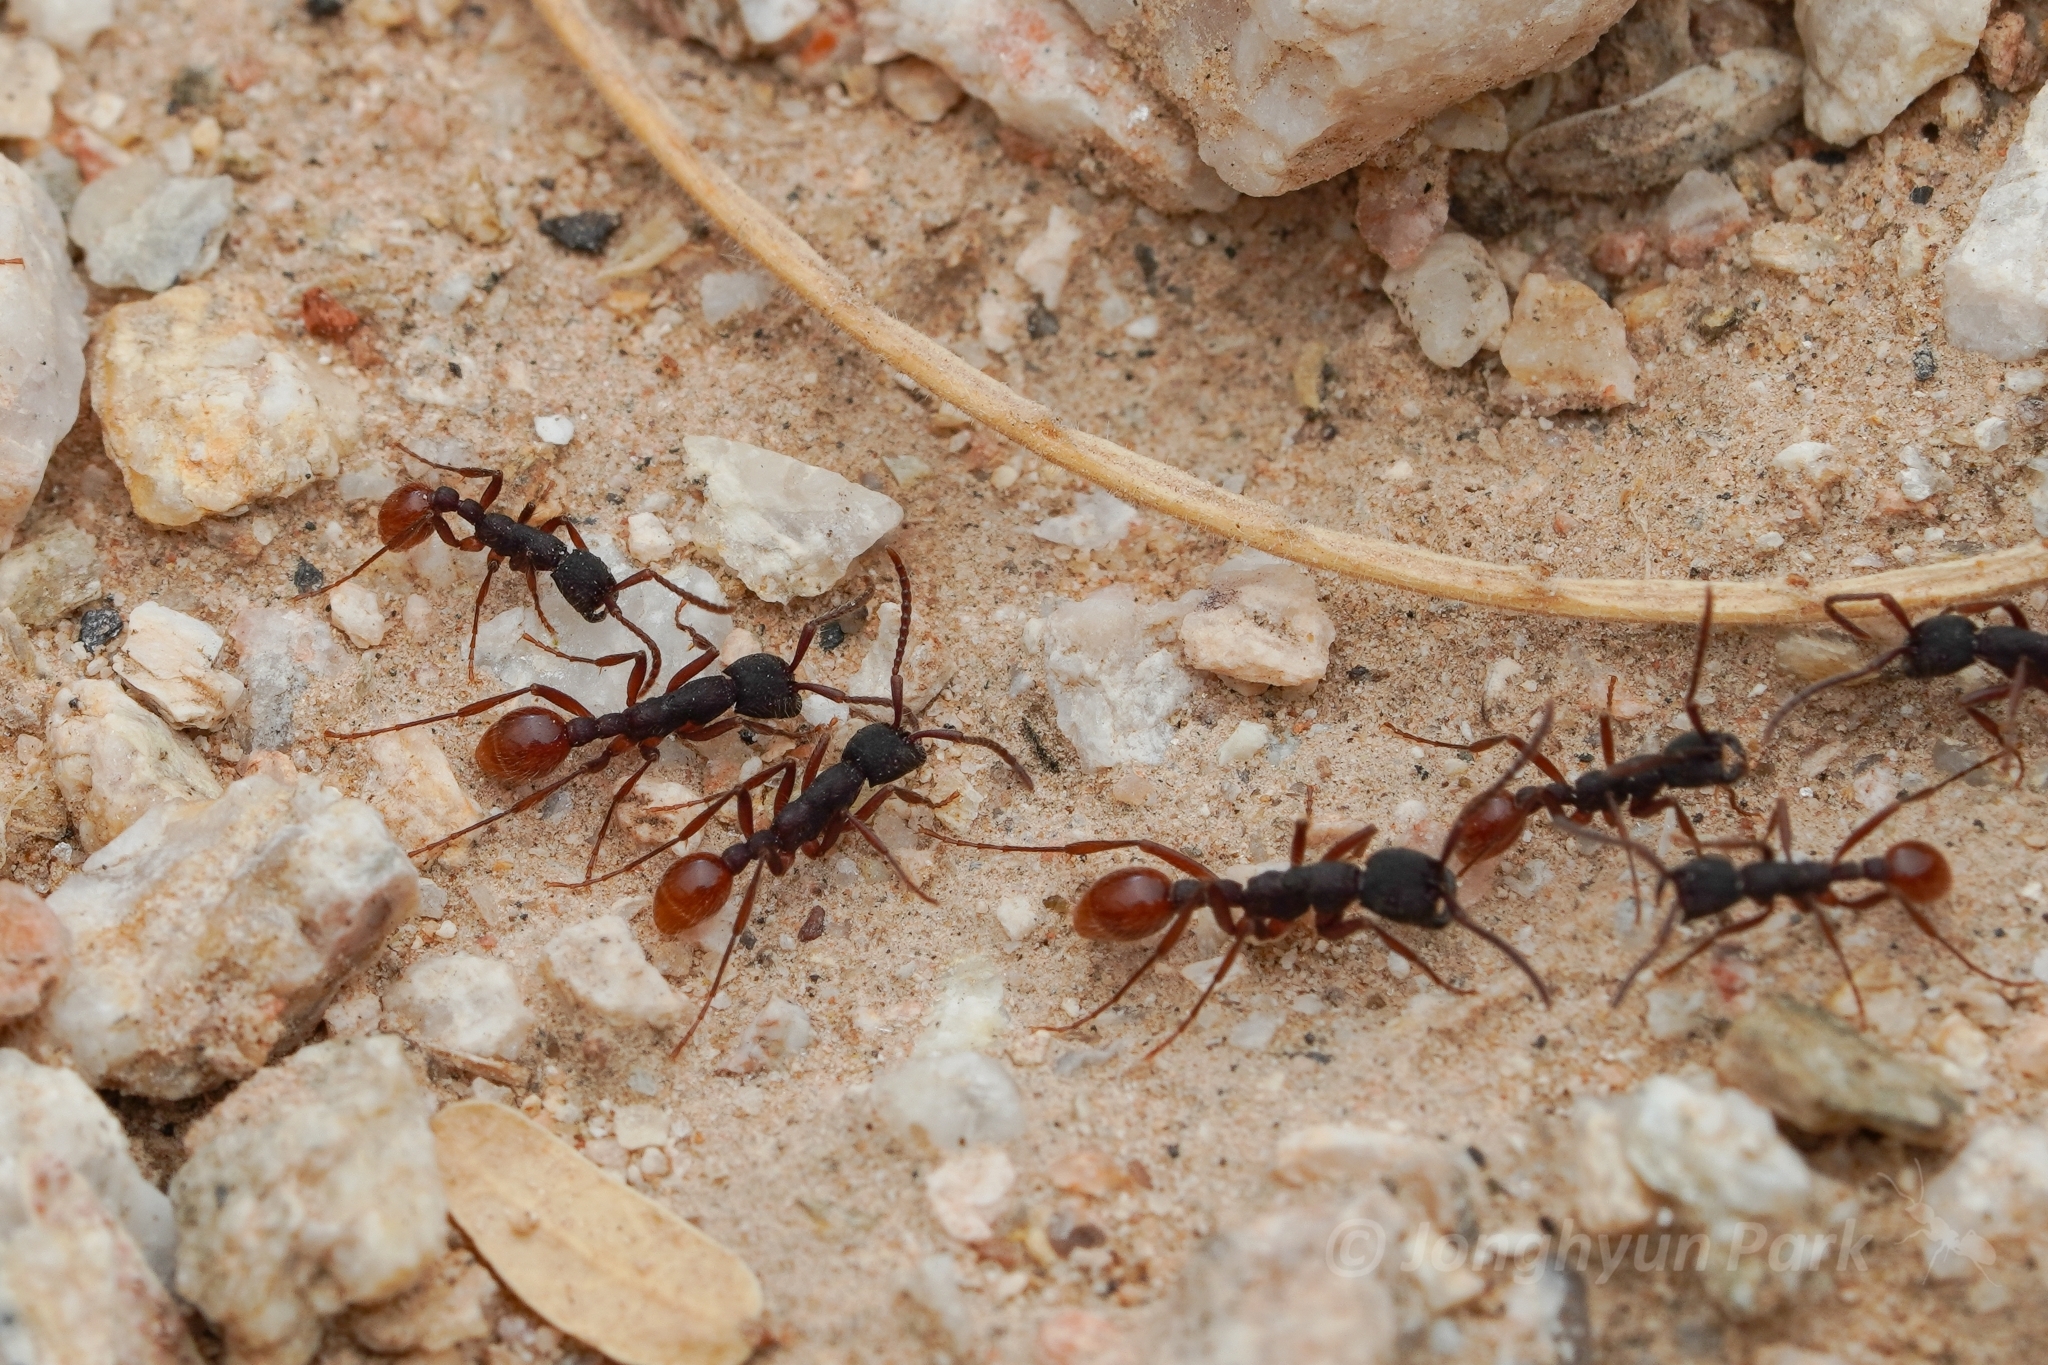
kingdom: Animalia
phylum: Arthropoda
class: Insecta
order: Hymenoptera
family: Formicidae
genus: Neivamyrmex
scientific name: Neivamyrmex texanus
